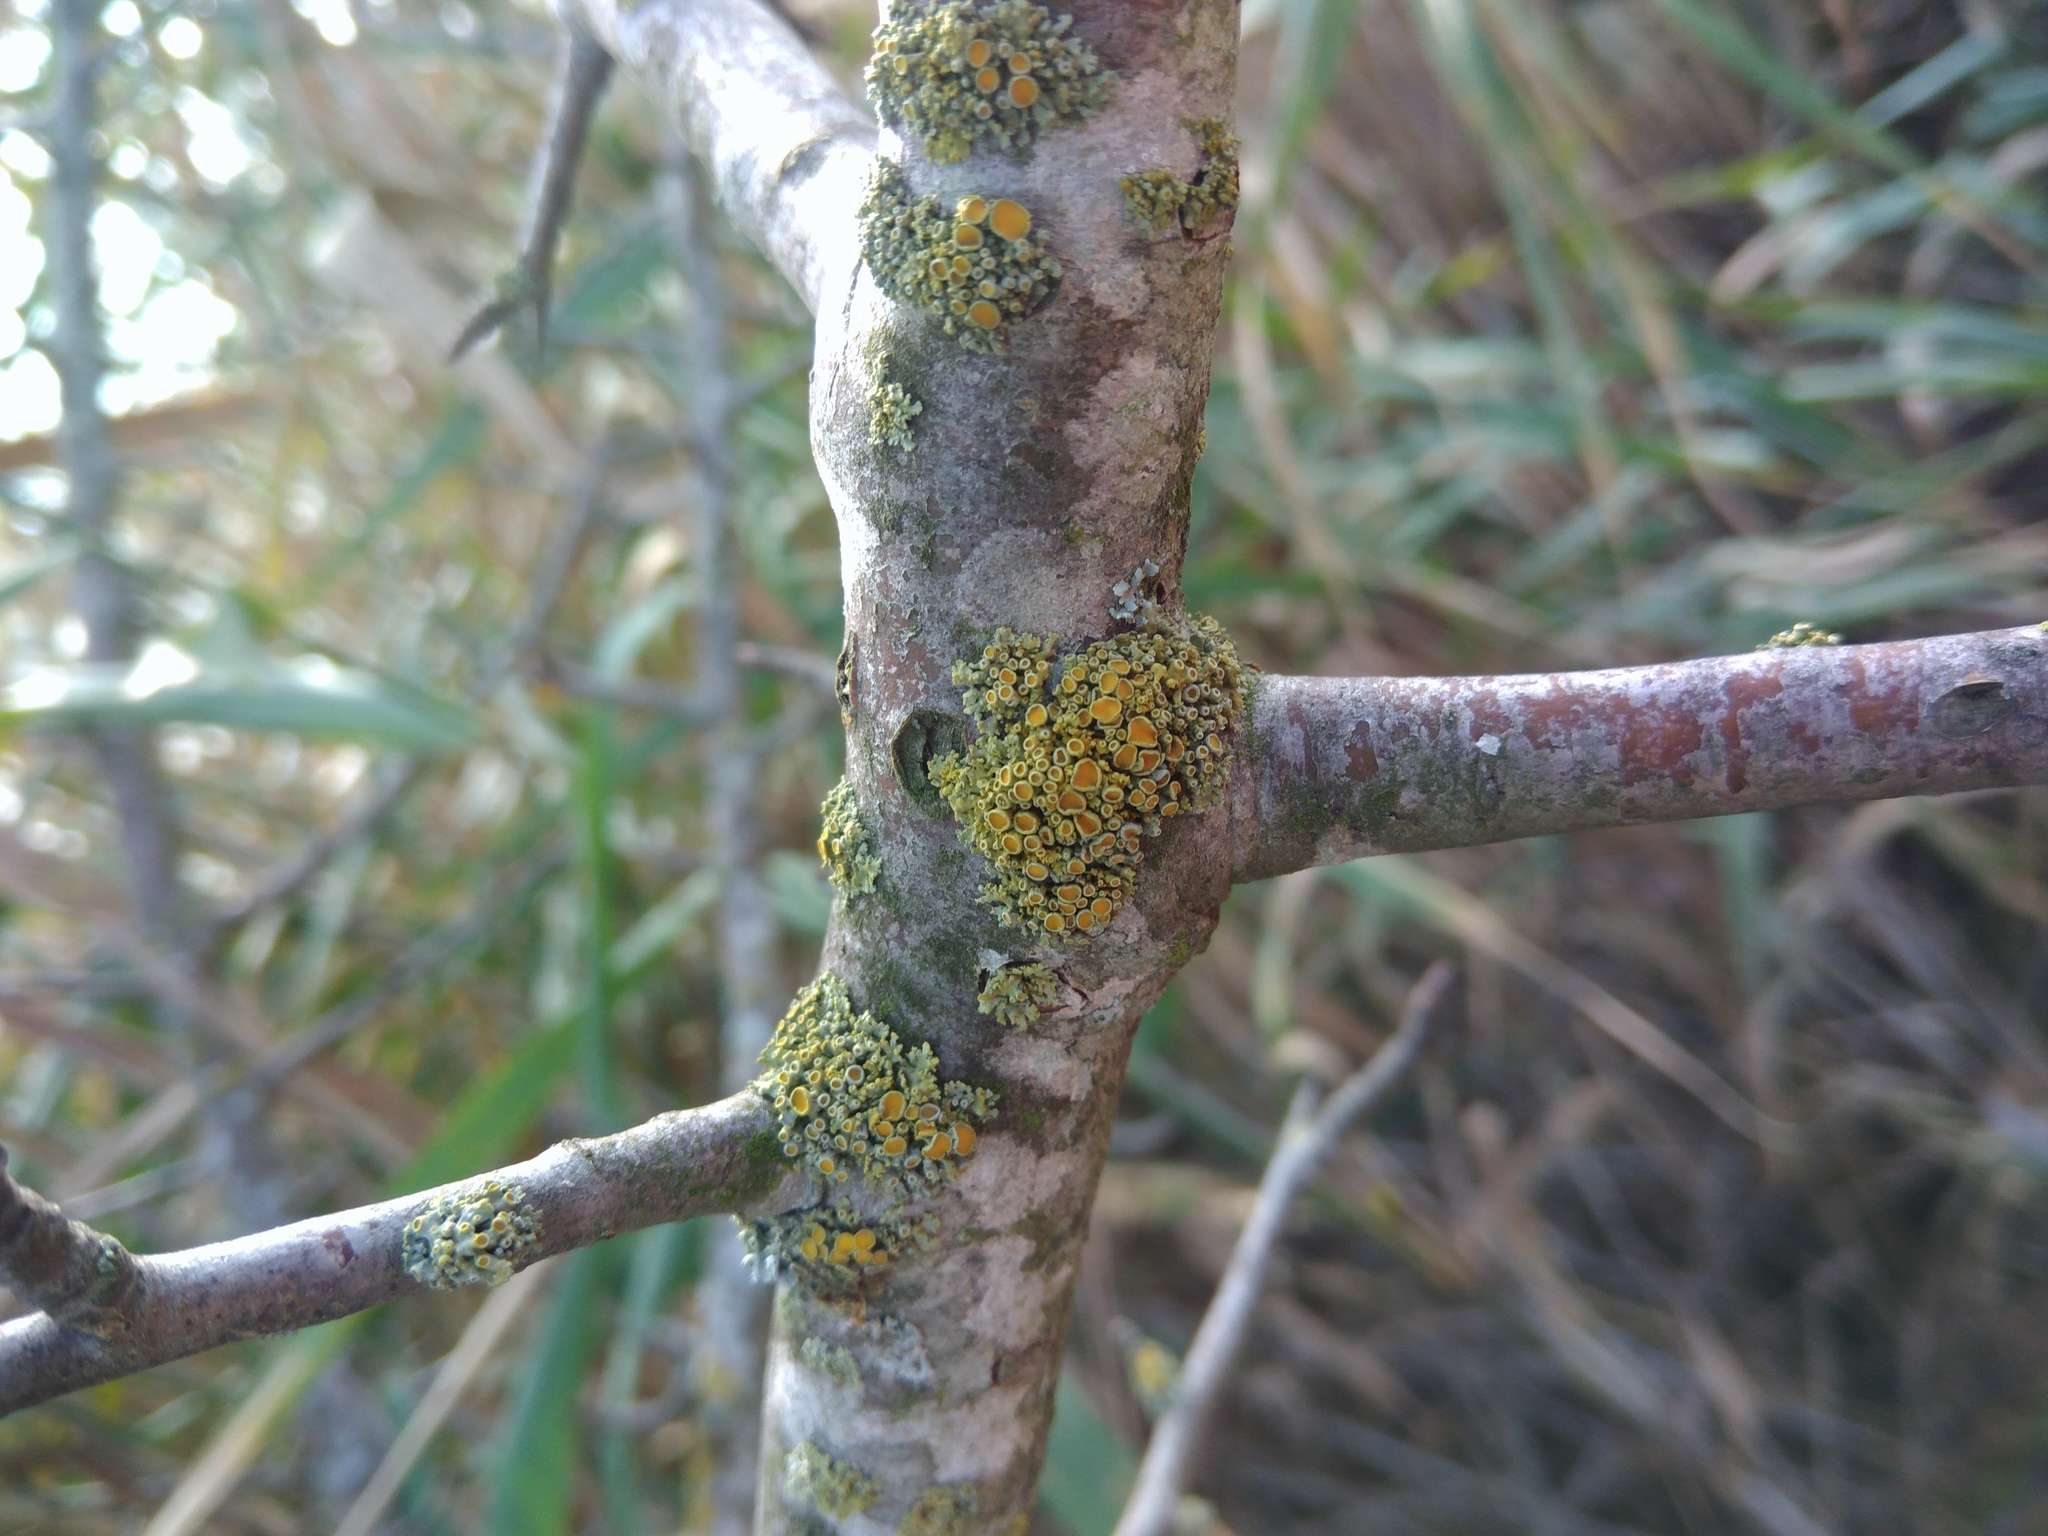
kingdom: Fungi
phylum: Ascomycota
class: Lecanoromycetes
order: Teloschistales
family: Teloschistaceae
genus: Polycauliona
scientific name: Polycauliona polycarpa
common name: Pin-cushion sunburst lichen
